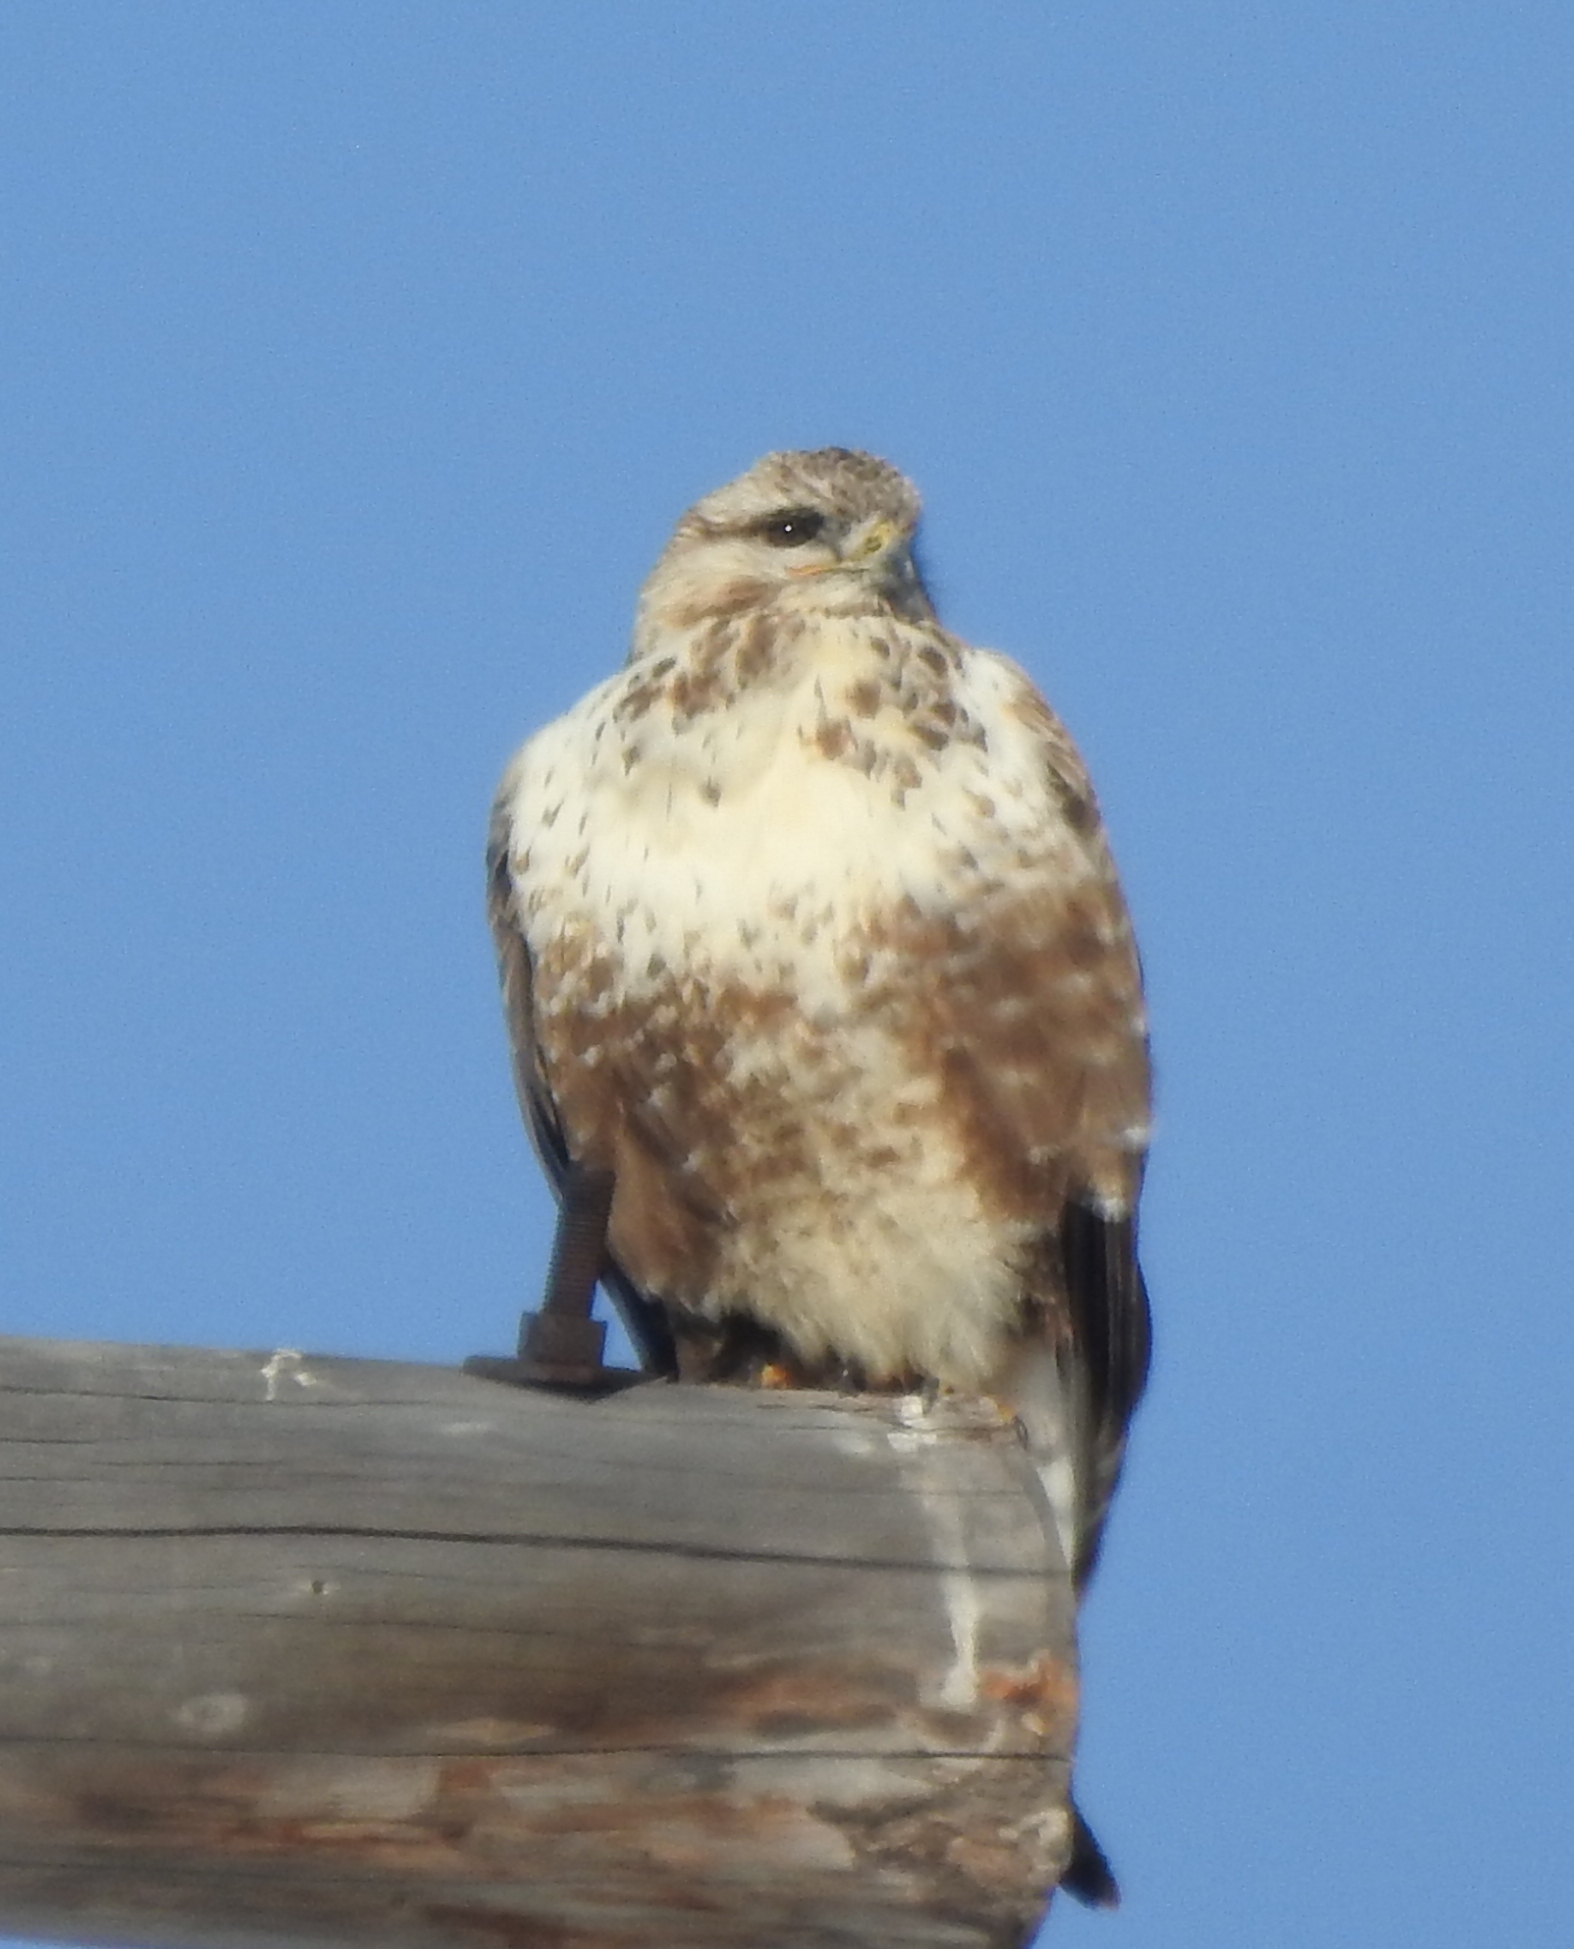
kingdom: Animalia
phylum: Chordata
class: Aves
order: Accipitriformes
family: Accipitridae
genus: Buteo
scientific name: Buteo hemilasius
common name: Upland buzzard
